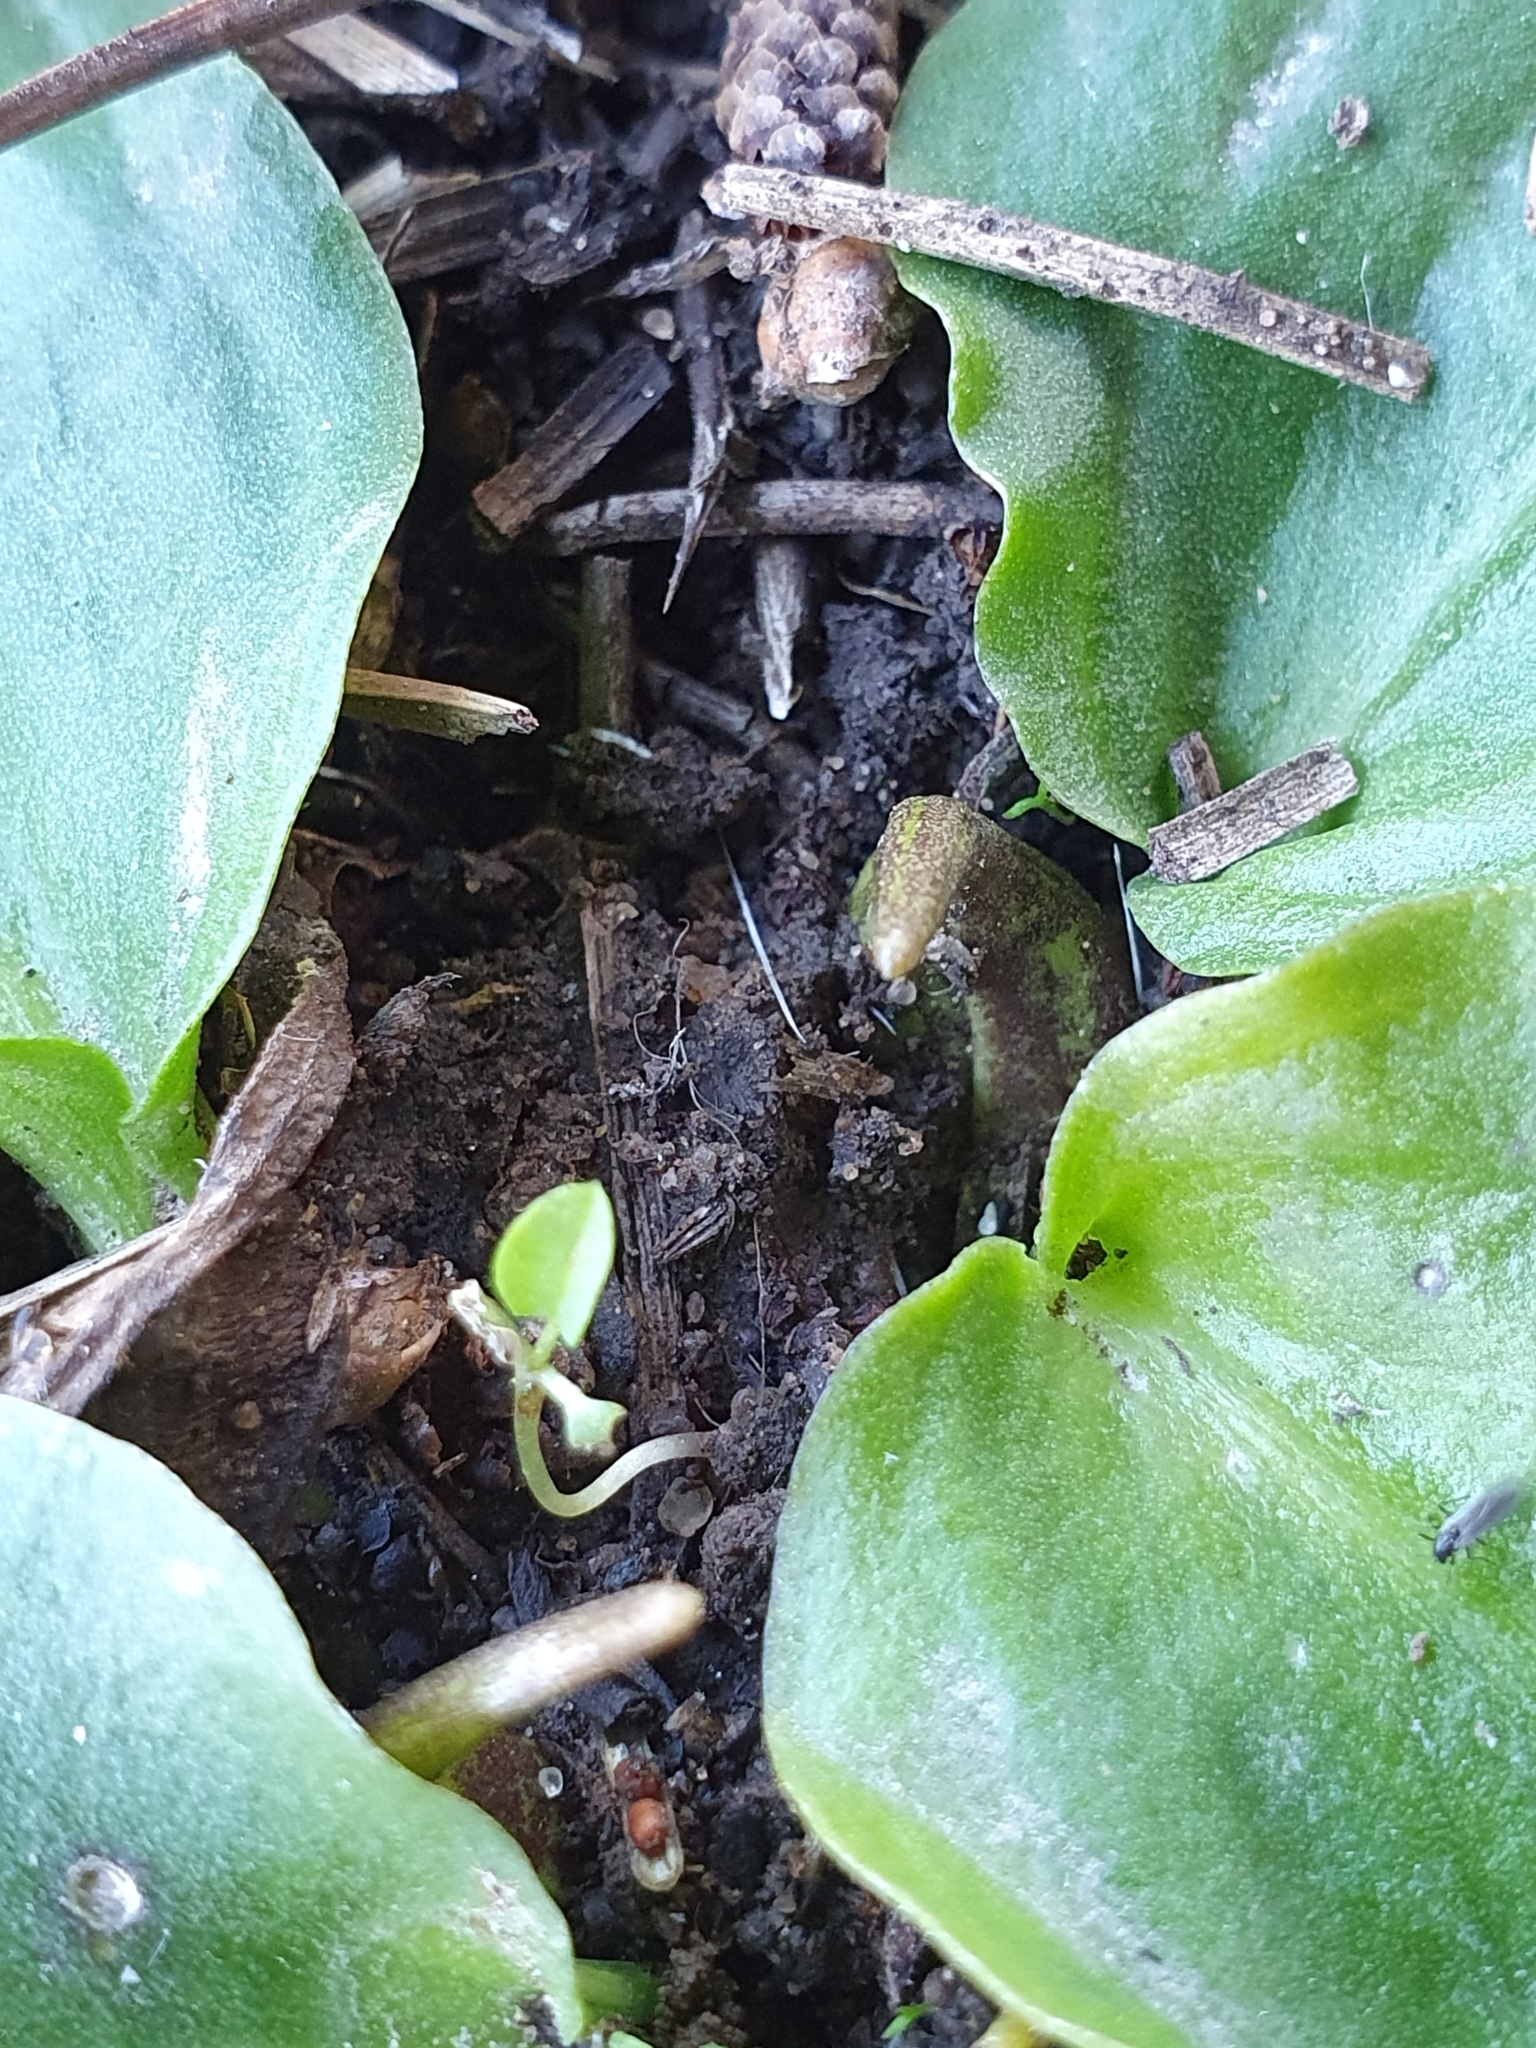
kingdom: Plantae
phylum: Tracheophyta
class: Liliopsida
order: Alismatales
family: Araceae
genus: Ambrosina
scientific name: Ambrosina bassii
